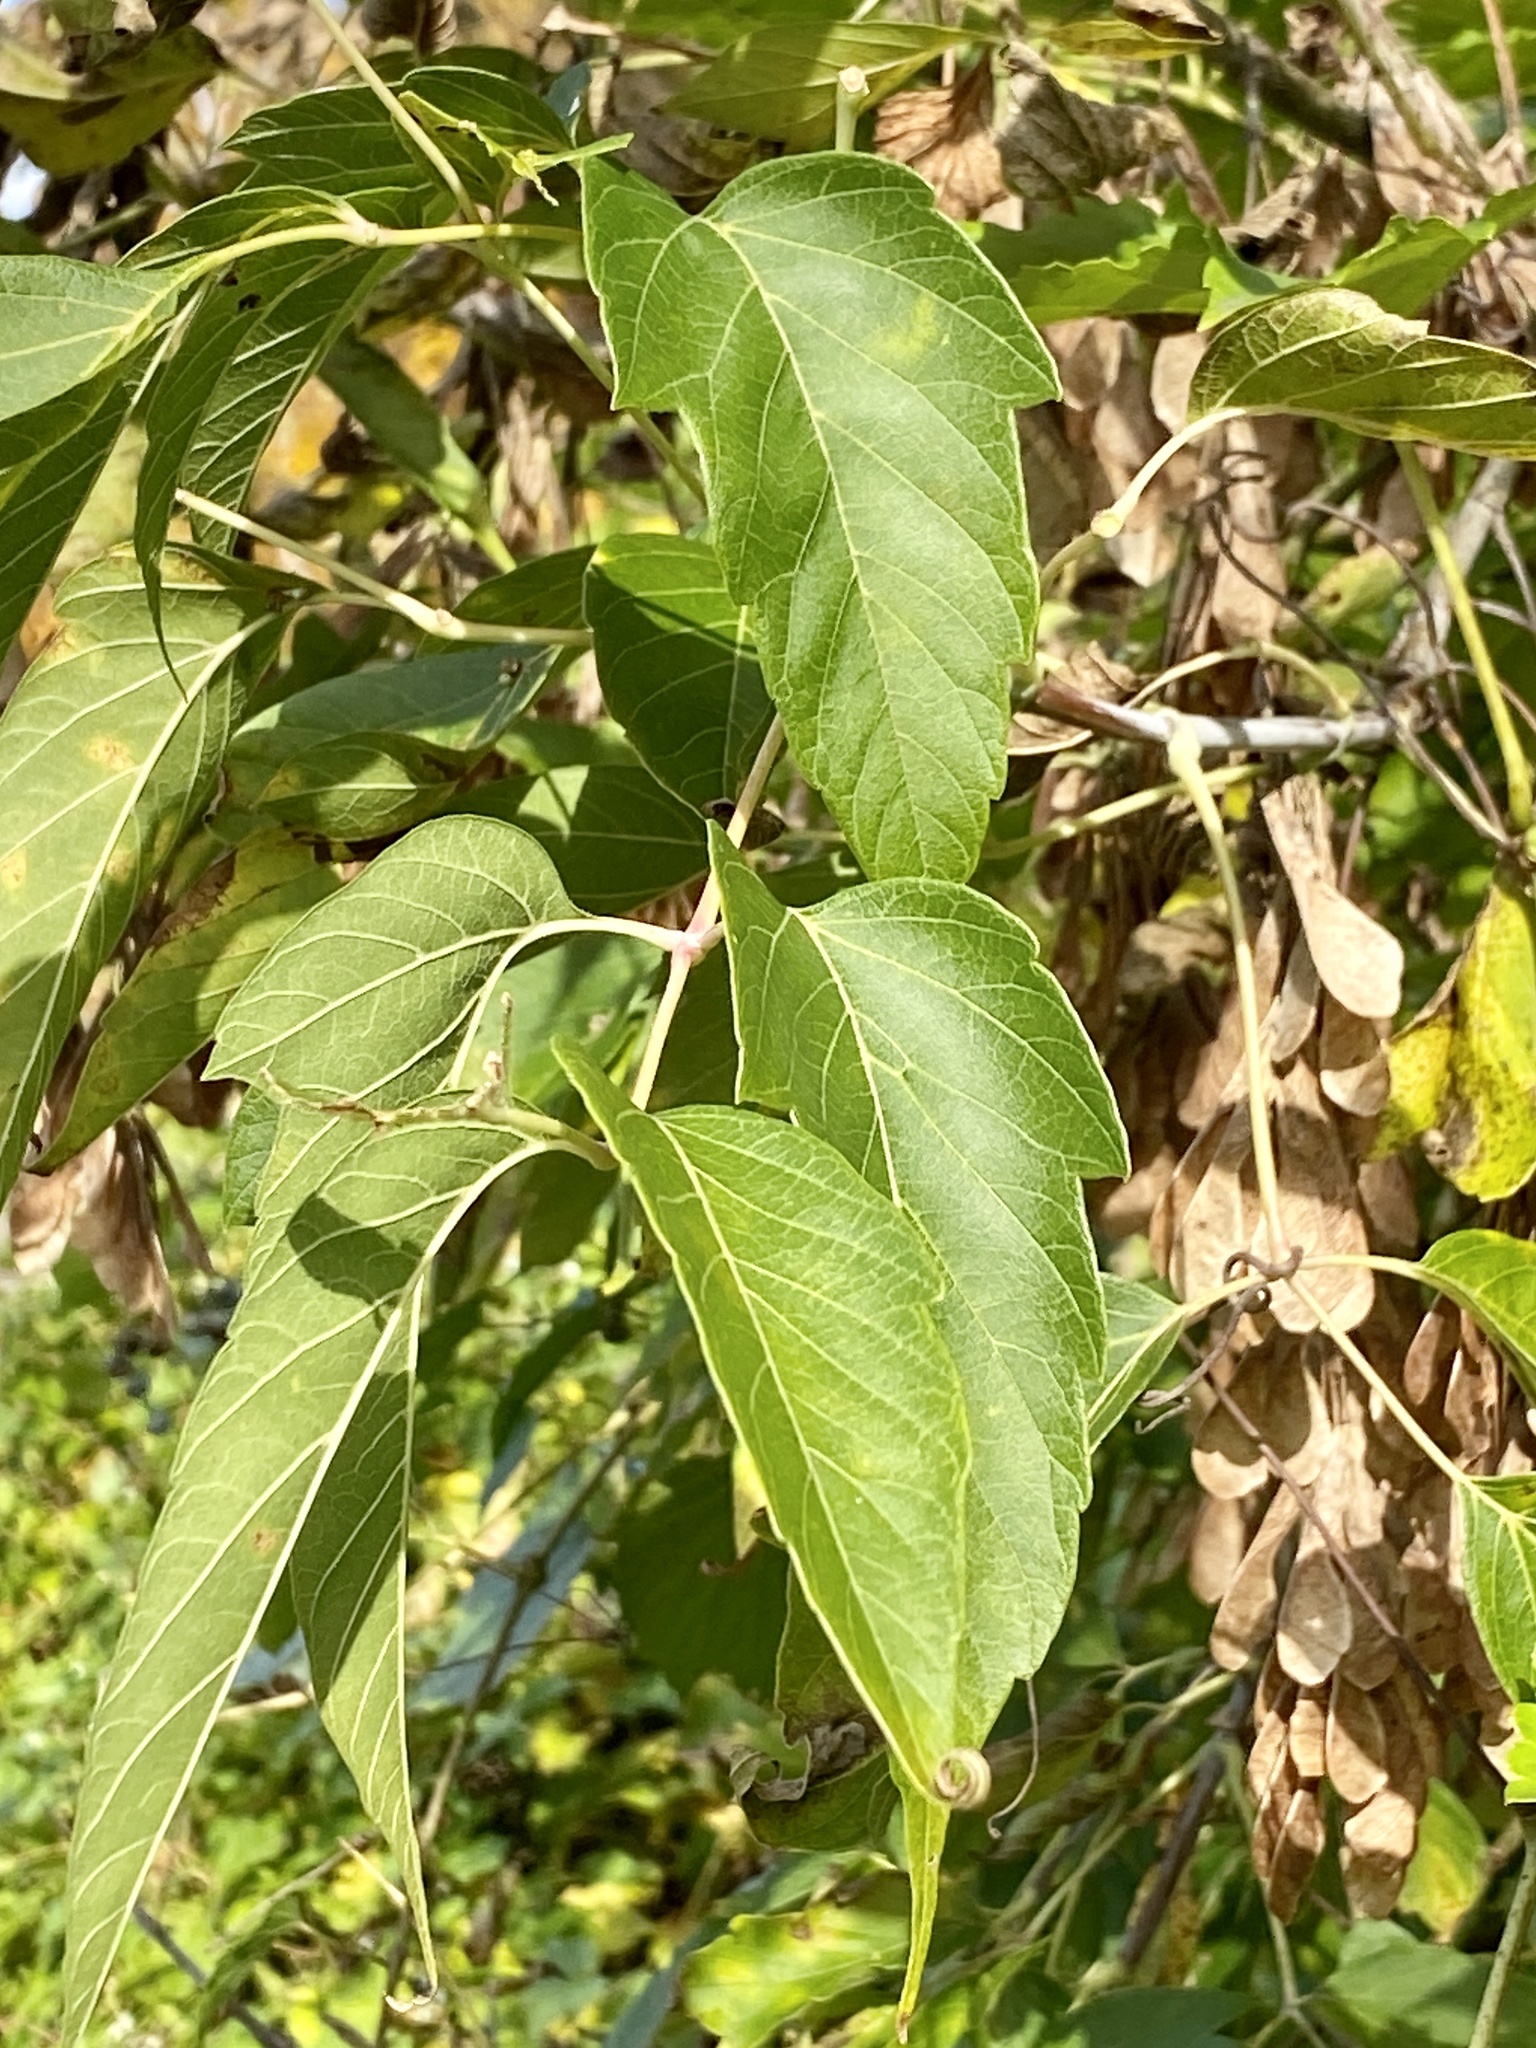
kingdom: Plantae
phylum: Tracheophyta
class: Magnoliopsida
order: Sapindales
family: Sapindaceae
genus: Acer
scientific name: Acer negundo
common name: Ashleaf maple
